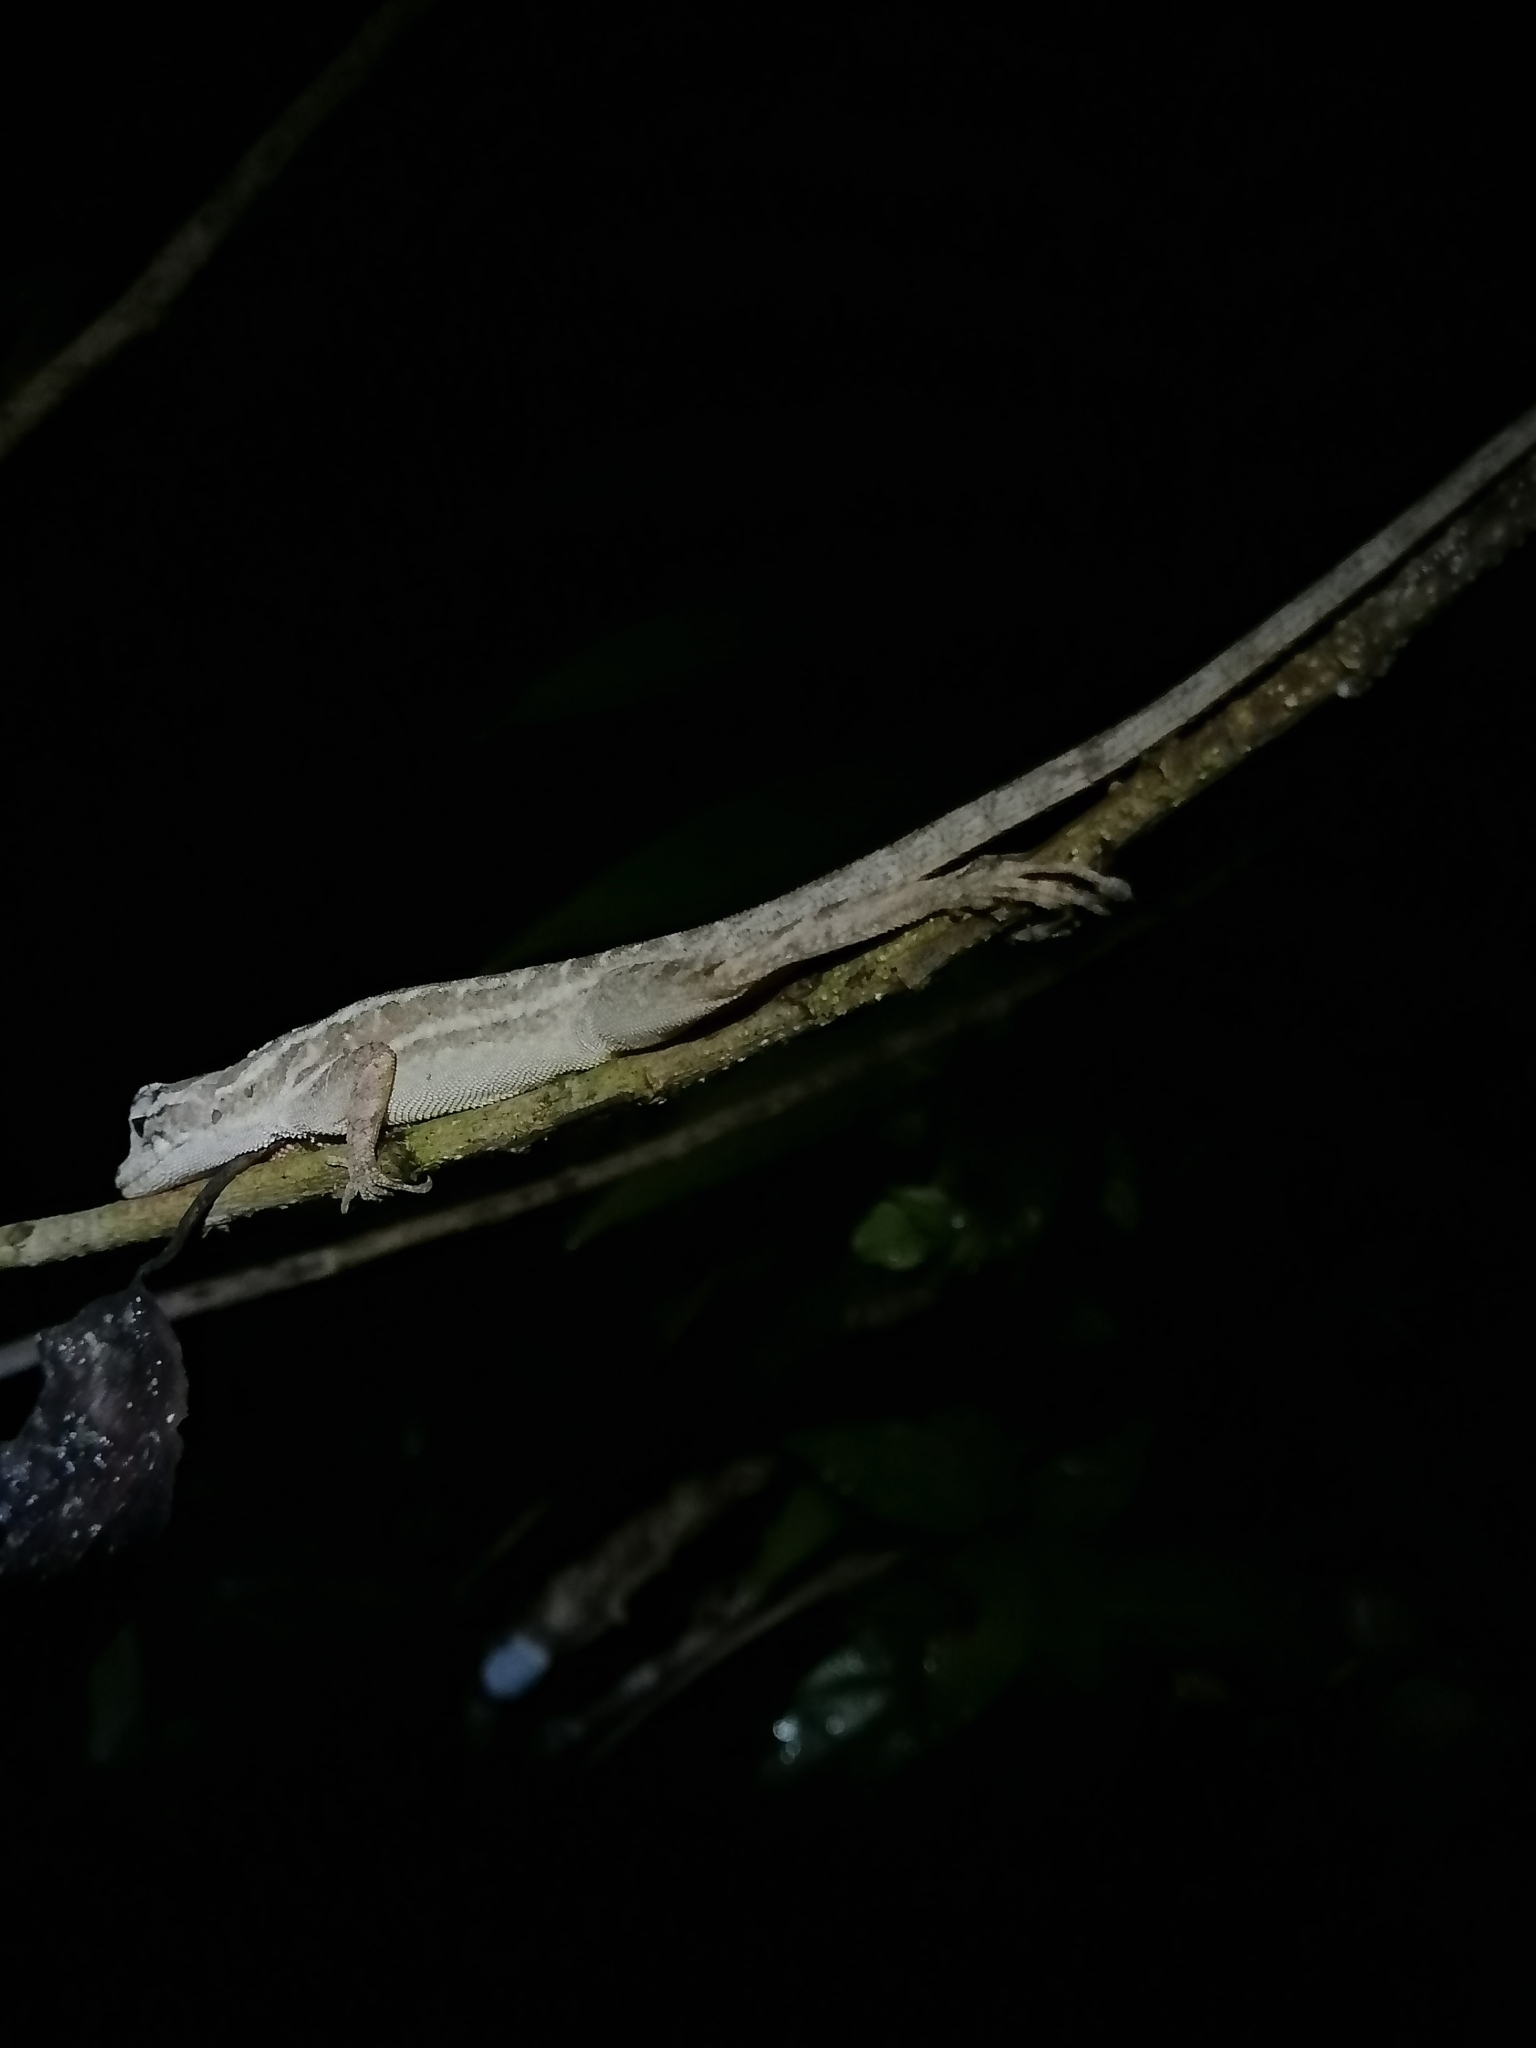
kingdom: Animalia
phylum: Chordata
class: Squamata
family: Dactyloidae
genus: Anolis
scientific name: Anolis lemurinus
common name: Ghost anole
